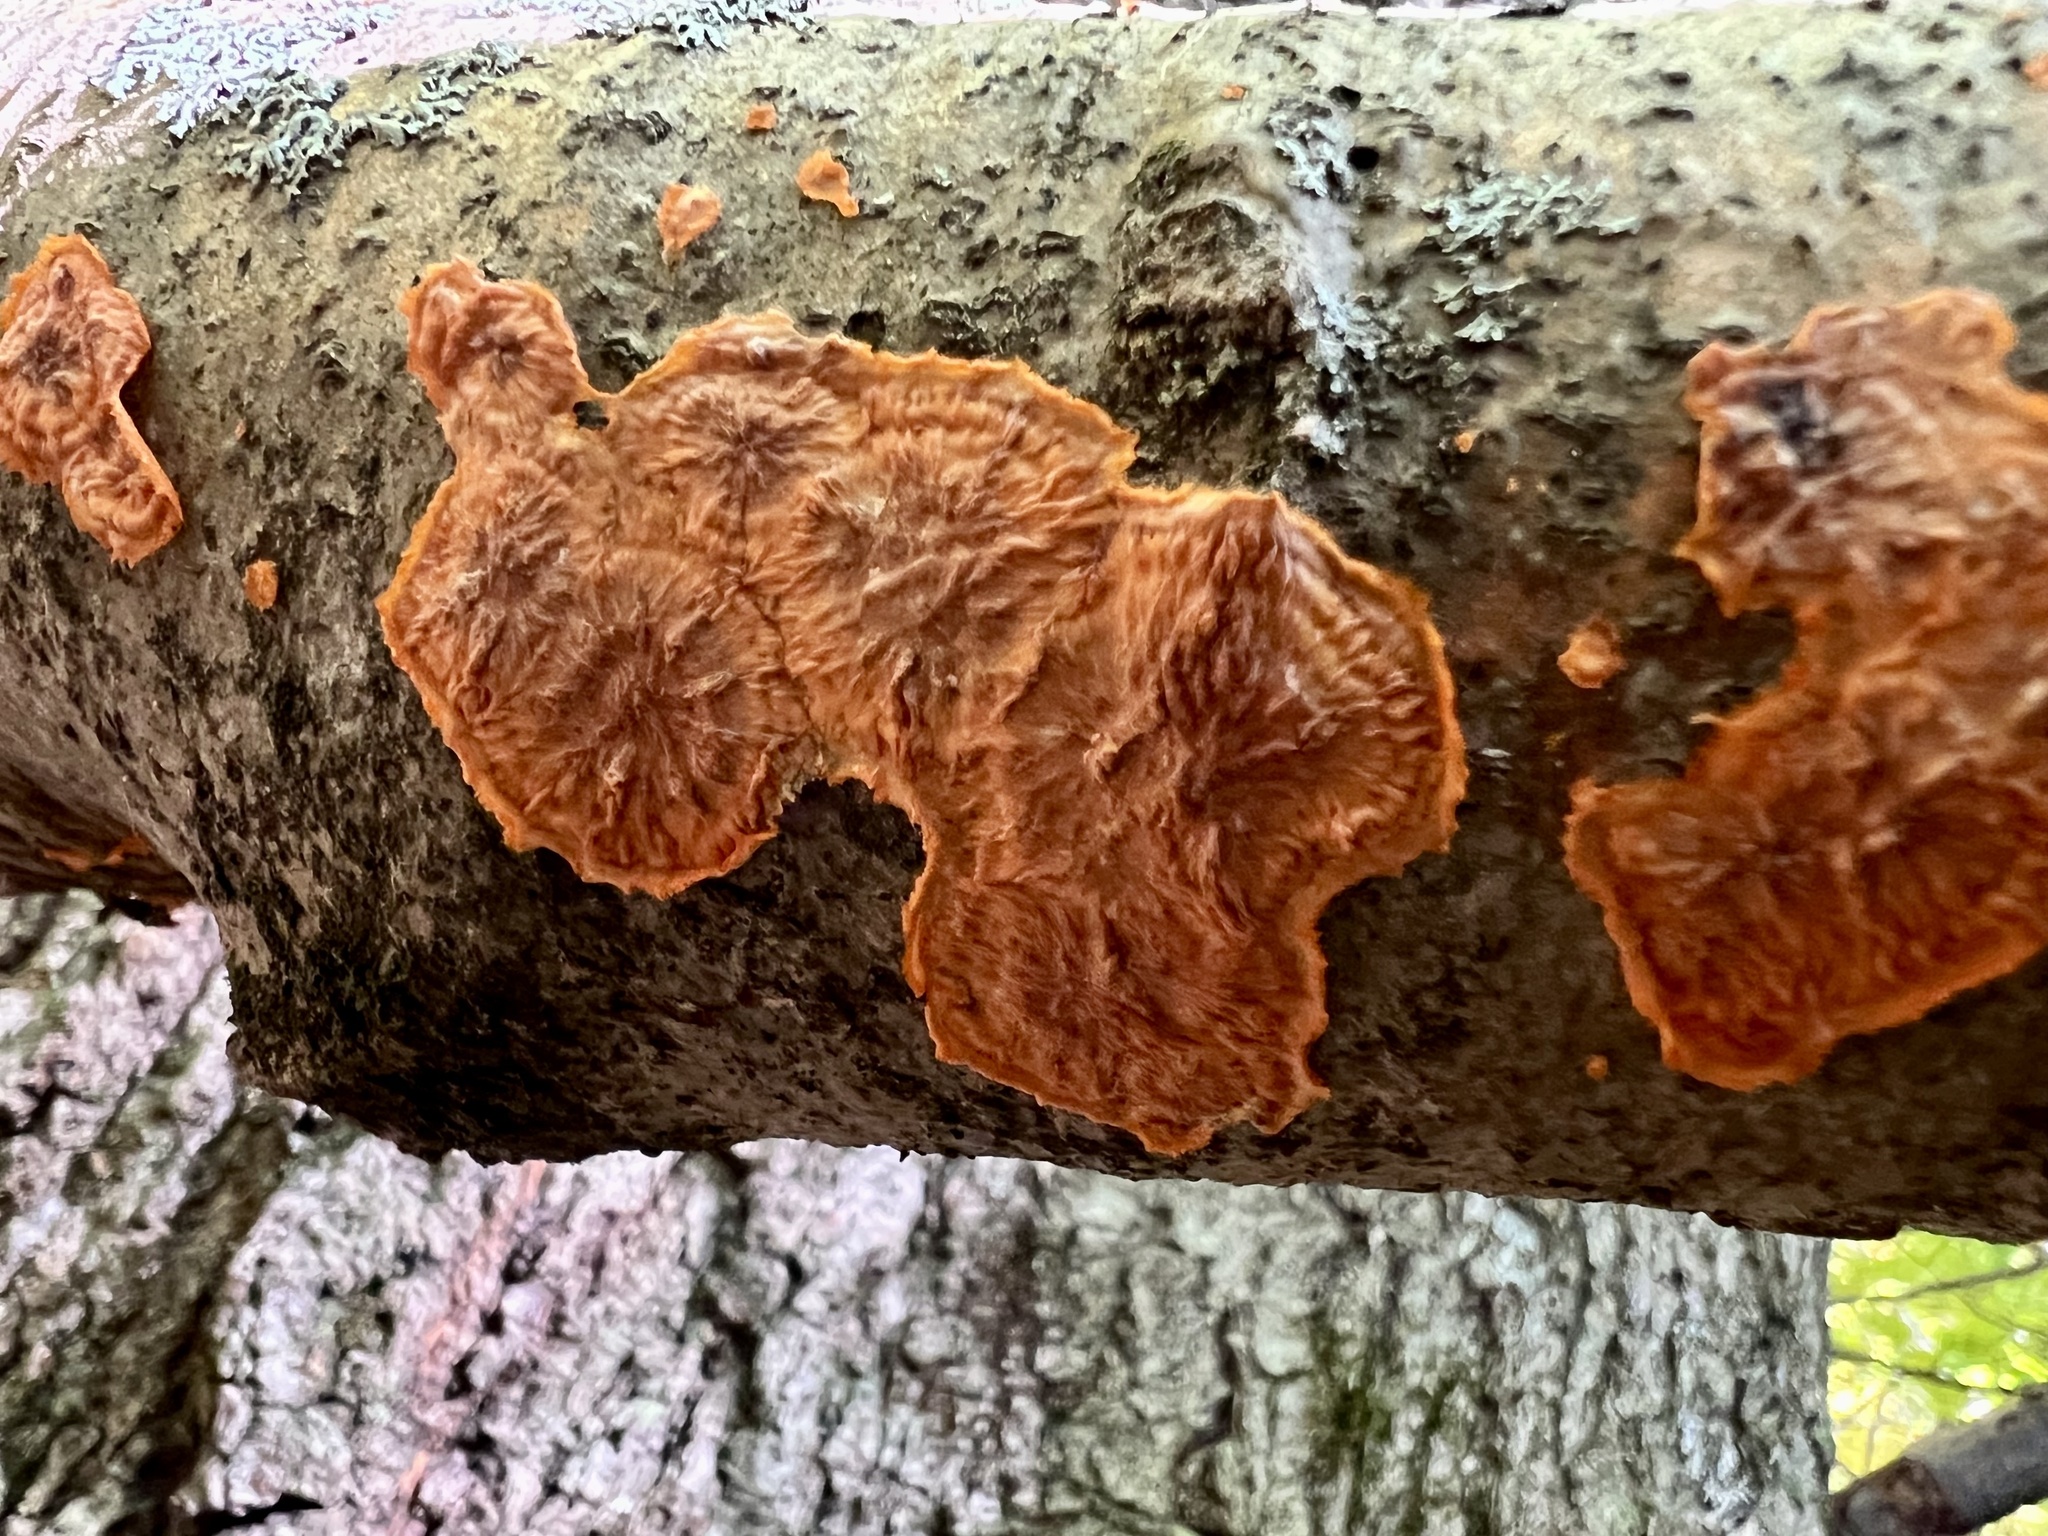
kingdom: Fungi
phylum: Basidiomycota
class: Agaricomycetes
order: Polyporales
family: Meruliaceae
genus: Phlebia
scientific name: Phlebia radiata
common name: Wrinkled crust
